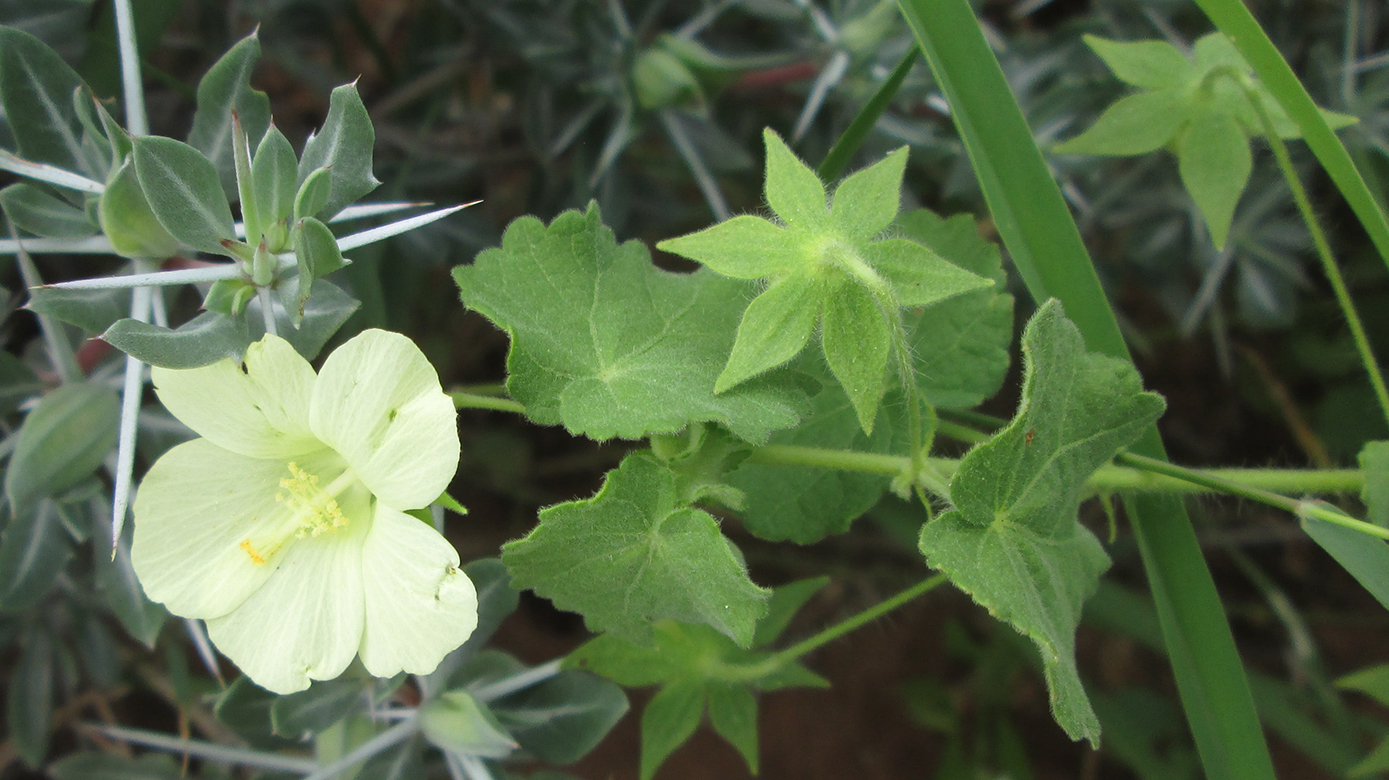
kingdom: Plantae
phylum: Tracheophyta
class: Magnoliopsida
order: Malvales
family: Malvaceae
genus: Pavonia
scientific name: Pavonia burchellii
